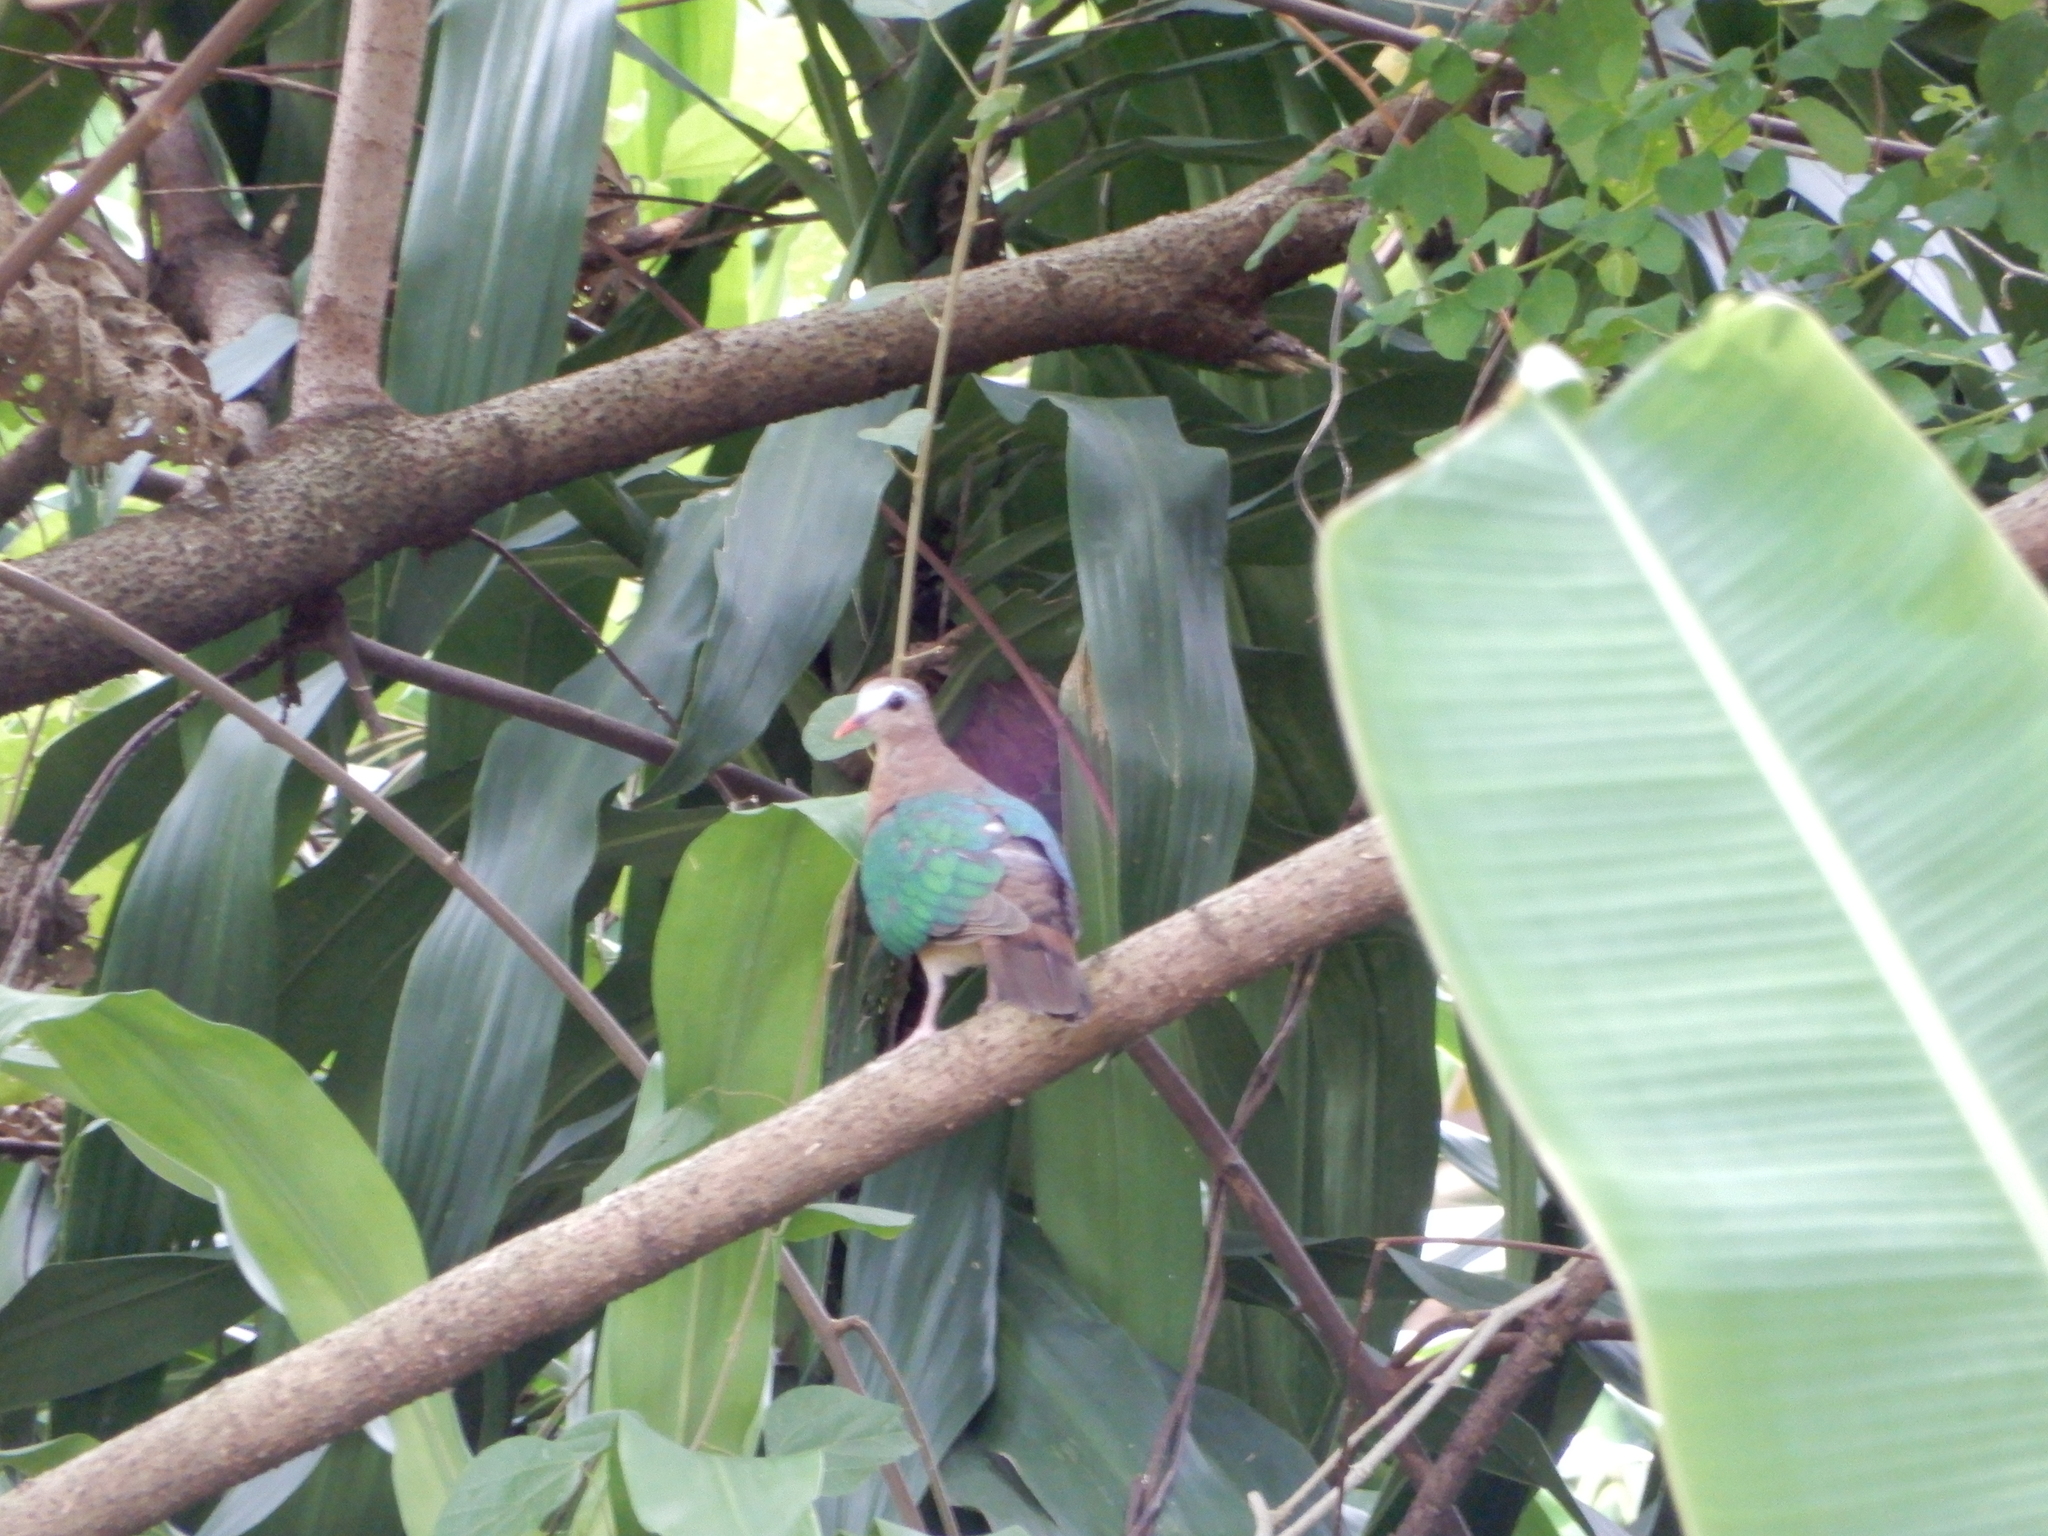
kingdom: Animalia
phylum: Chordata
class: Aves
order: Columbiformes
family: Columbidae
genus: Chalcophaps
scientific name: Chalcophaps indica
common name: Common emerald dove
